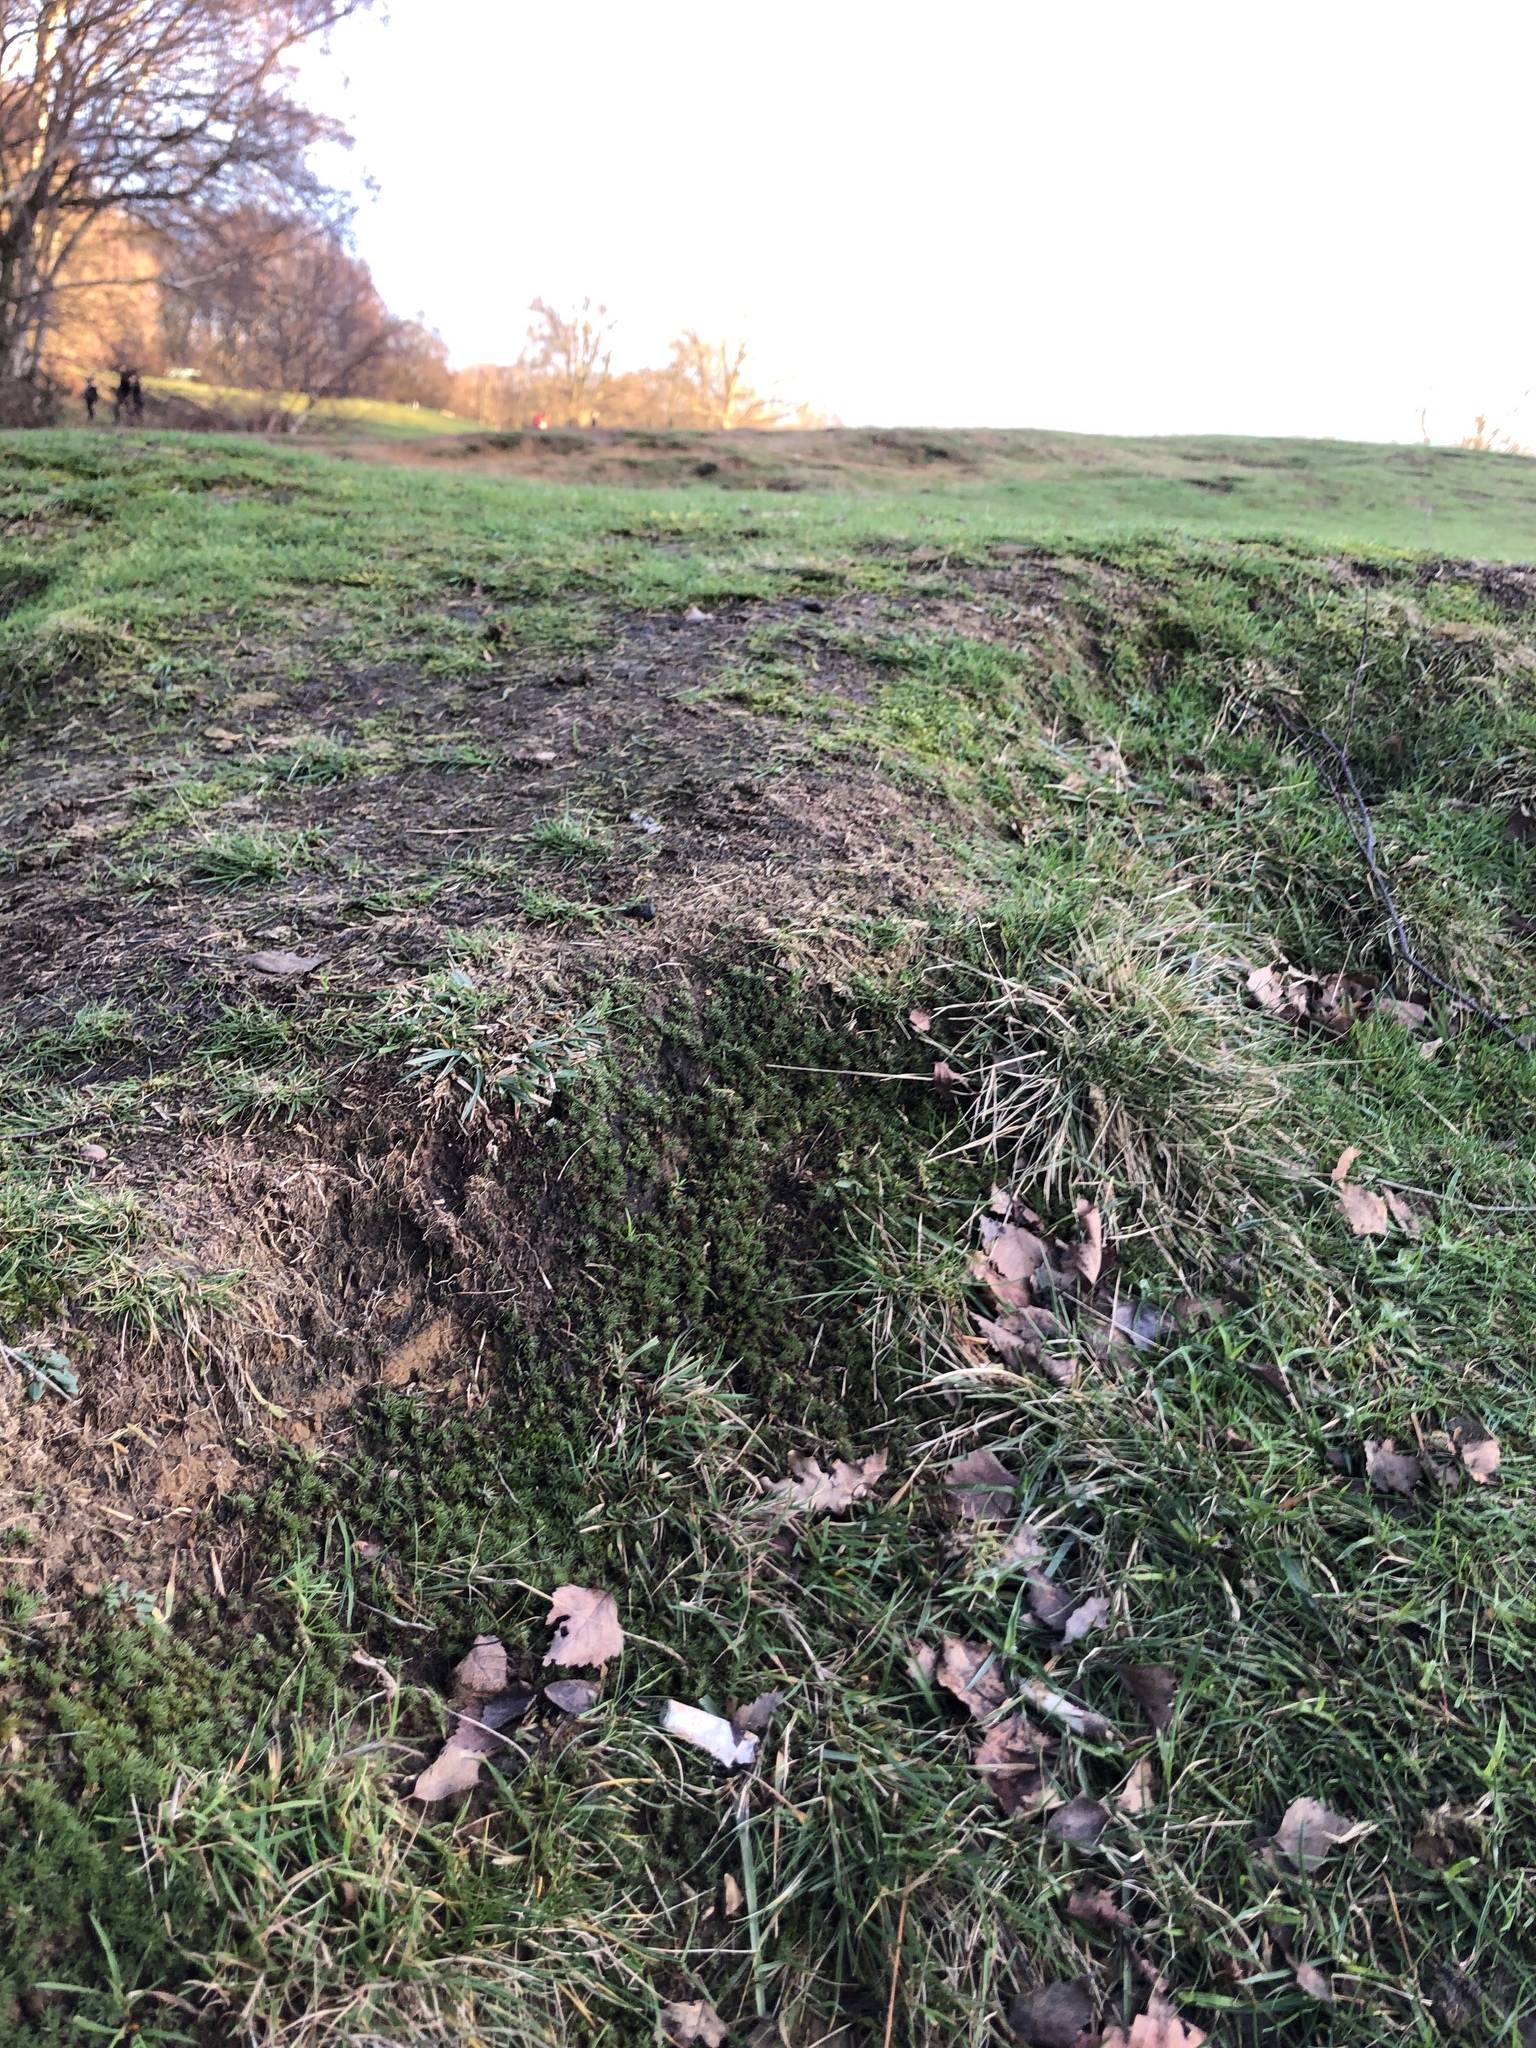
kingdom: Plantae
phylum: Bryophyta
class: Polytrichopsida
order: Polytrichales
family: Polytrichaceae
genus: Polytrichum
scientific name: Polytrichum piliferum
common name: Bristly haircap
